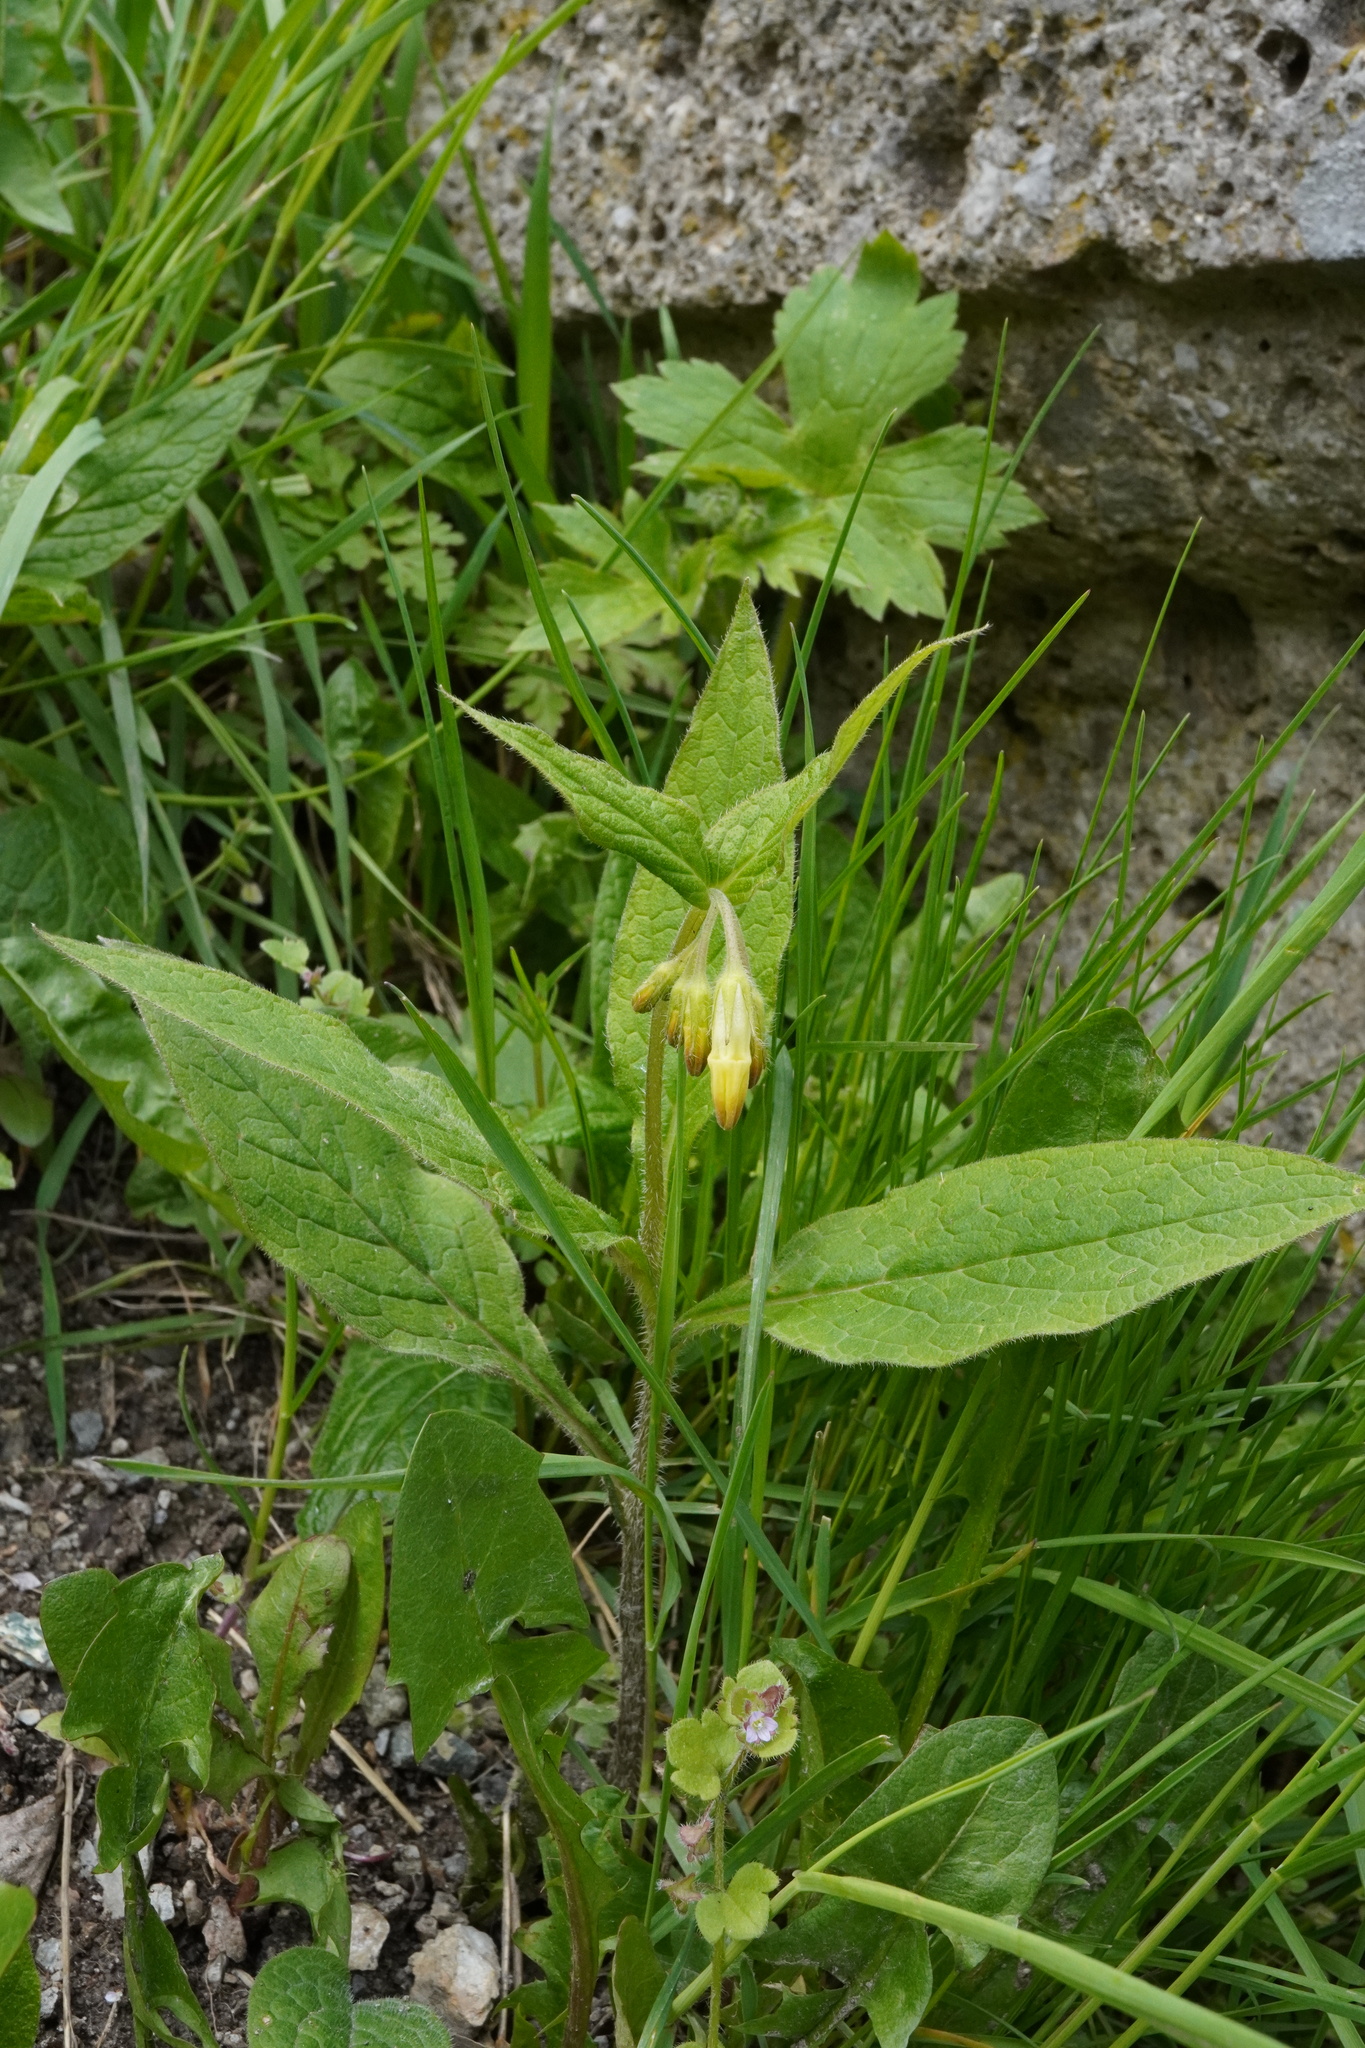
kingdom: Plantae
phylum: Tracheophyta
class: Magnoliopsida
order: Boraginales
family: Boraginaceae
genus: Symphytum
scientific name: Symphytum tuberosum
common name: Tuberous comfrey
